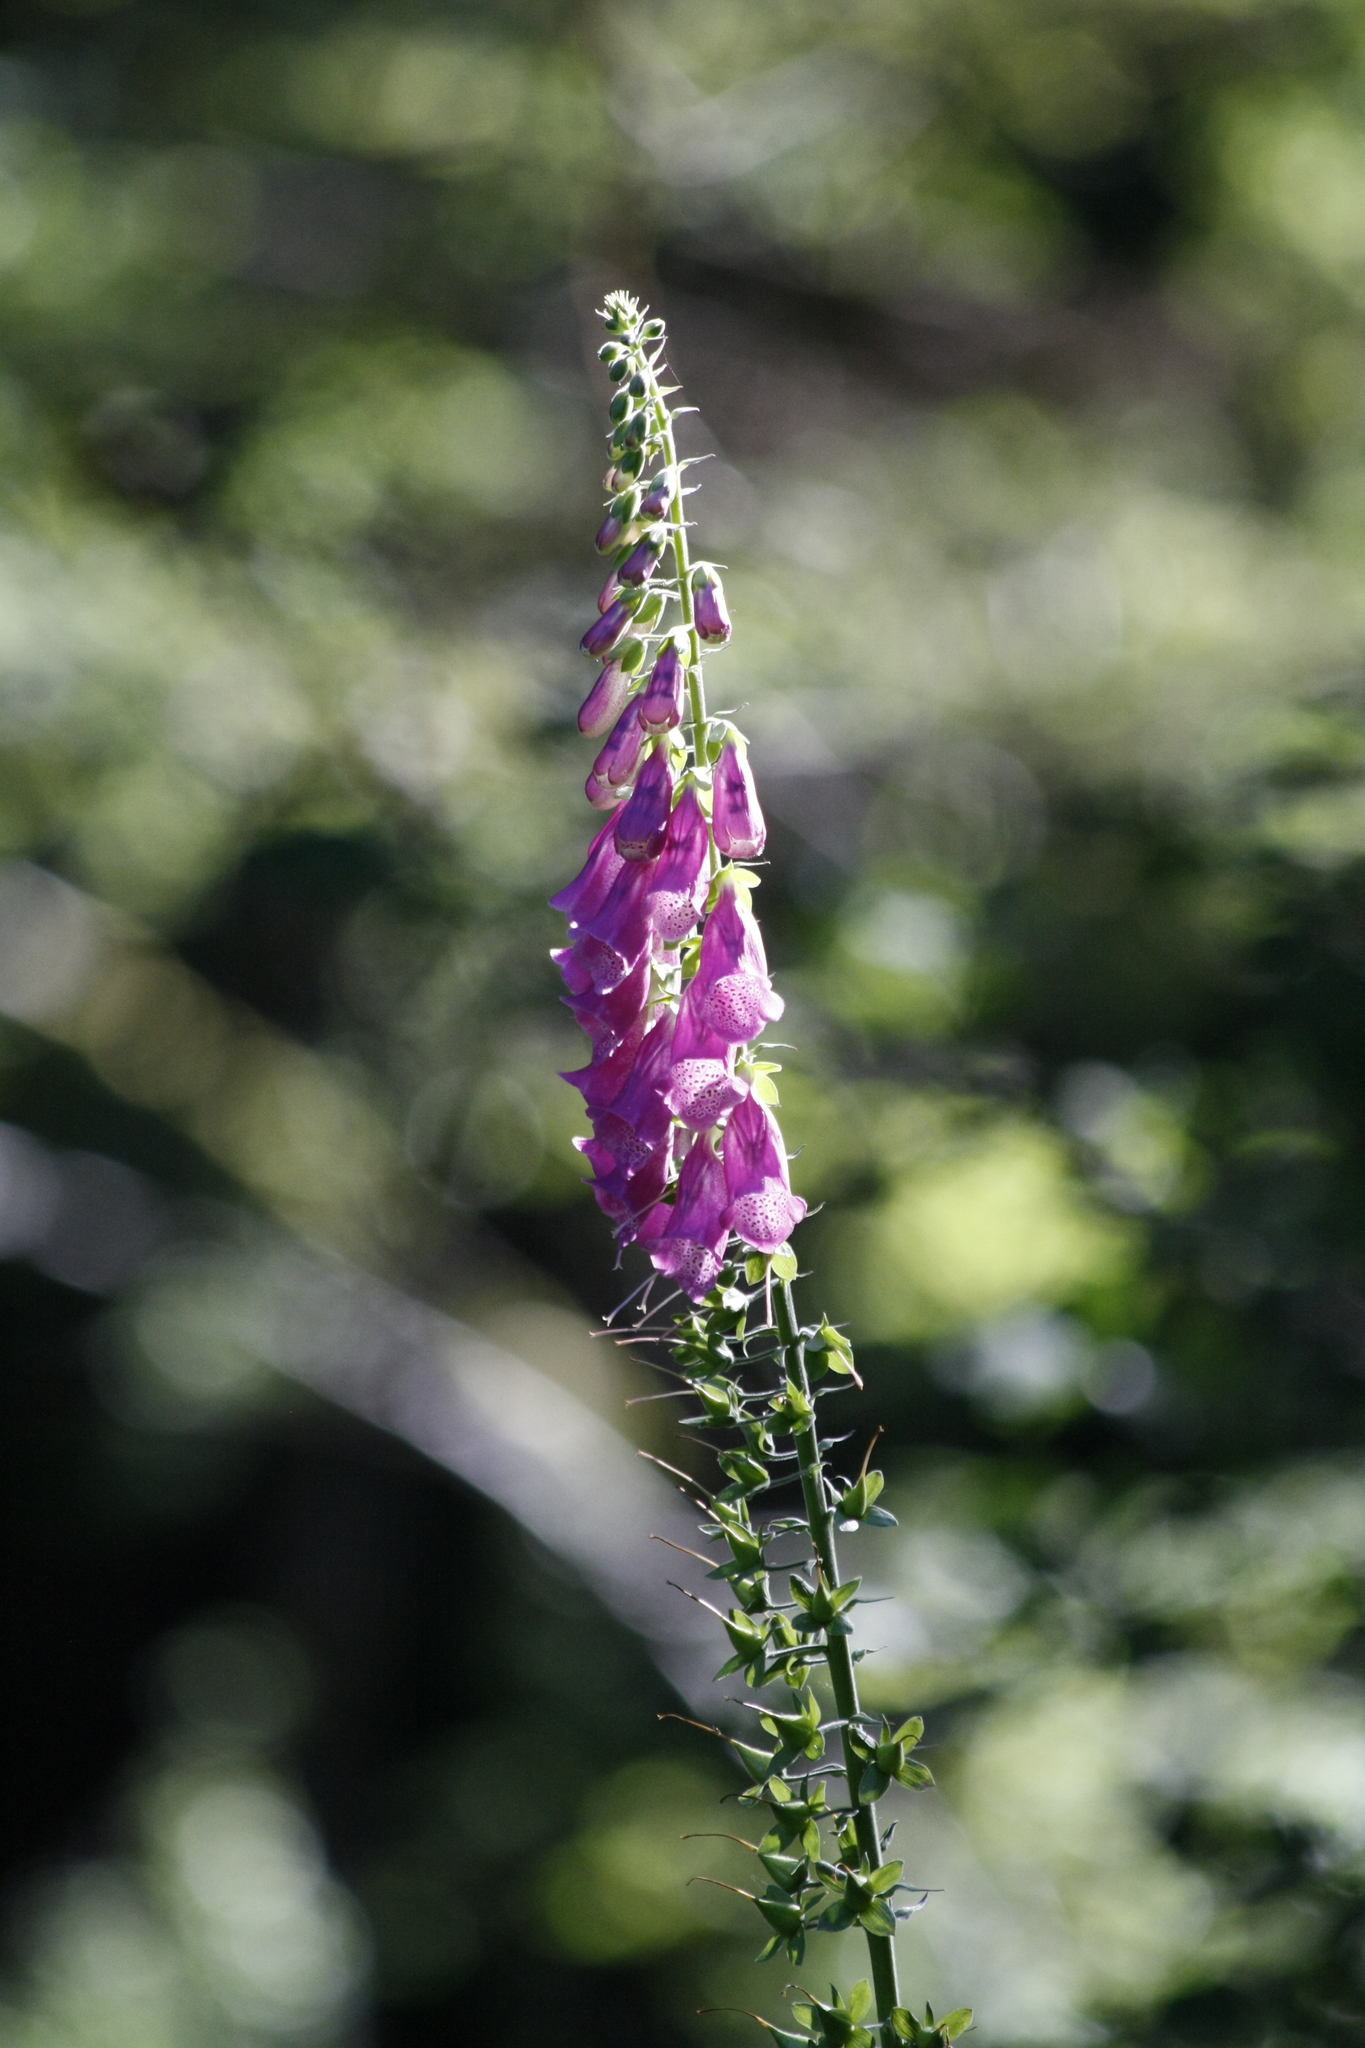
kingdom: Plantae
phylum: Tracheophyta
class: Magnoliopsida
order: Lamiales
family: Plantaginaceae
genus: Digitalis
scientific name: Digitalis purpurea
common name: Foxglove
